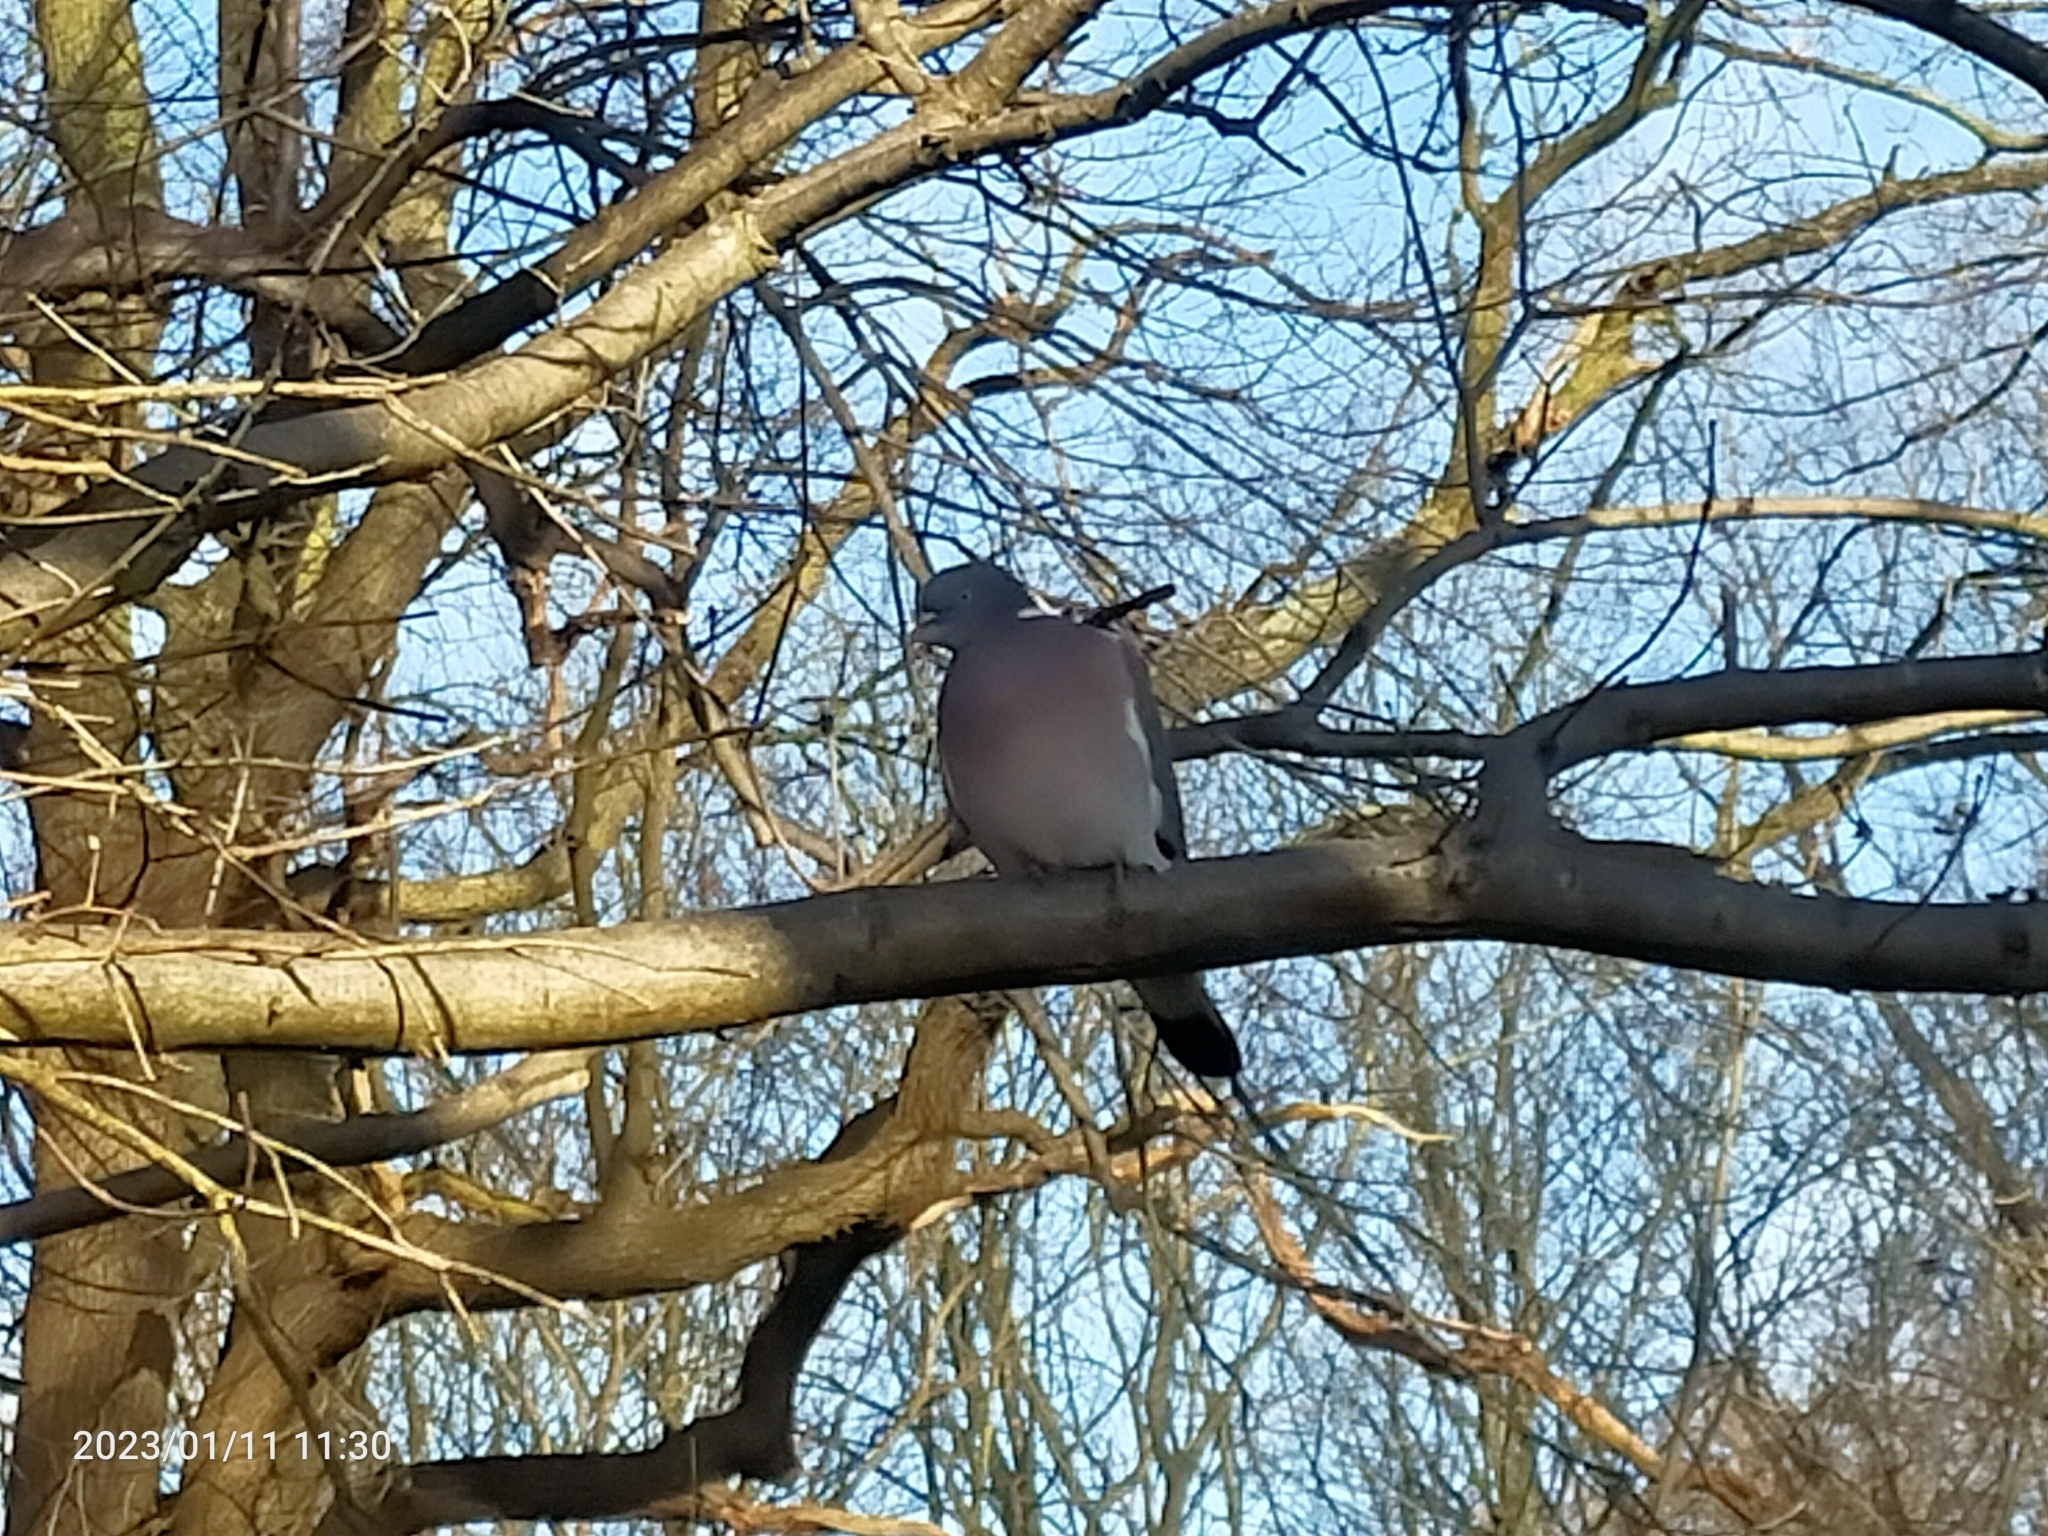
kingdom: Animalia
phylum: Chordata
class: Aves
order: Columbiformes
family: Columbidae
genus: Columba
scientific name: Columba palumbus
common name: Common wood pigeon
